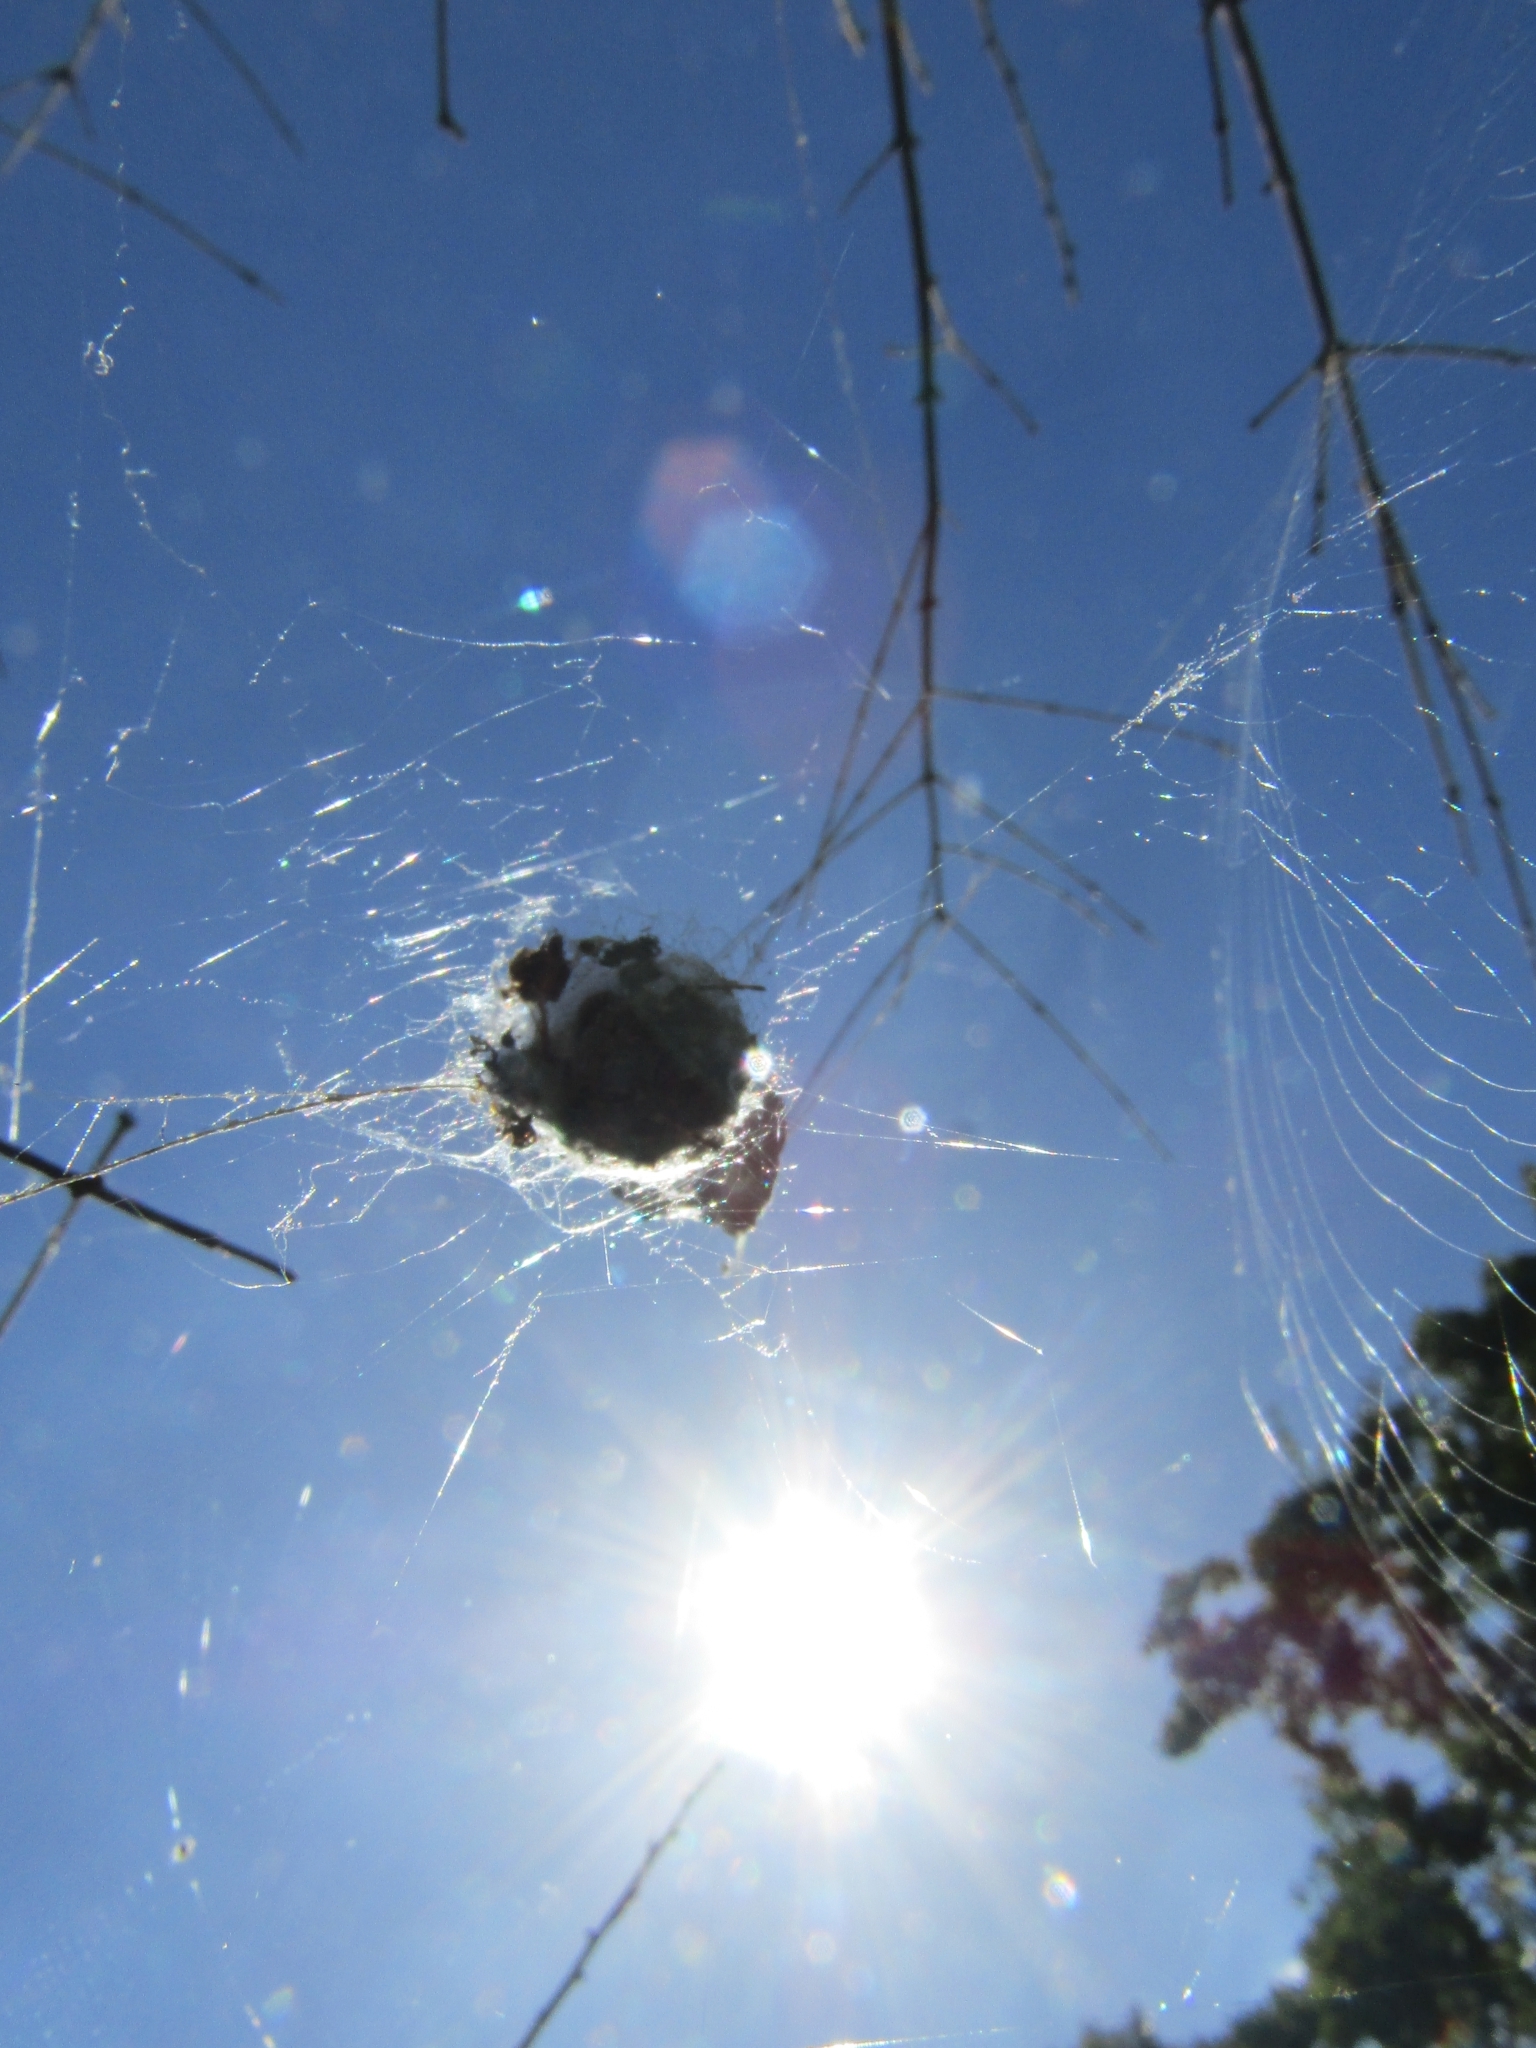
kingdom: Animalia
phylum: Arthropoda
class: Arachnida
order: Araneae
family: Araneidae
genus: Metepeira
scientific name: Metepeira
